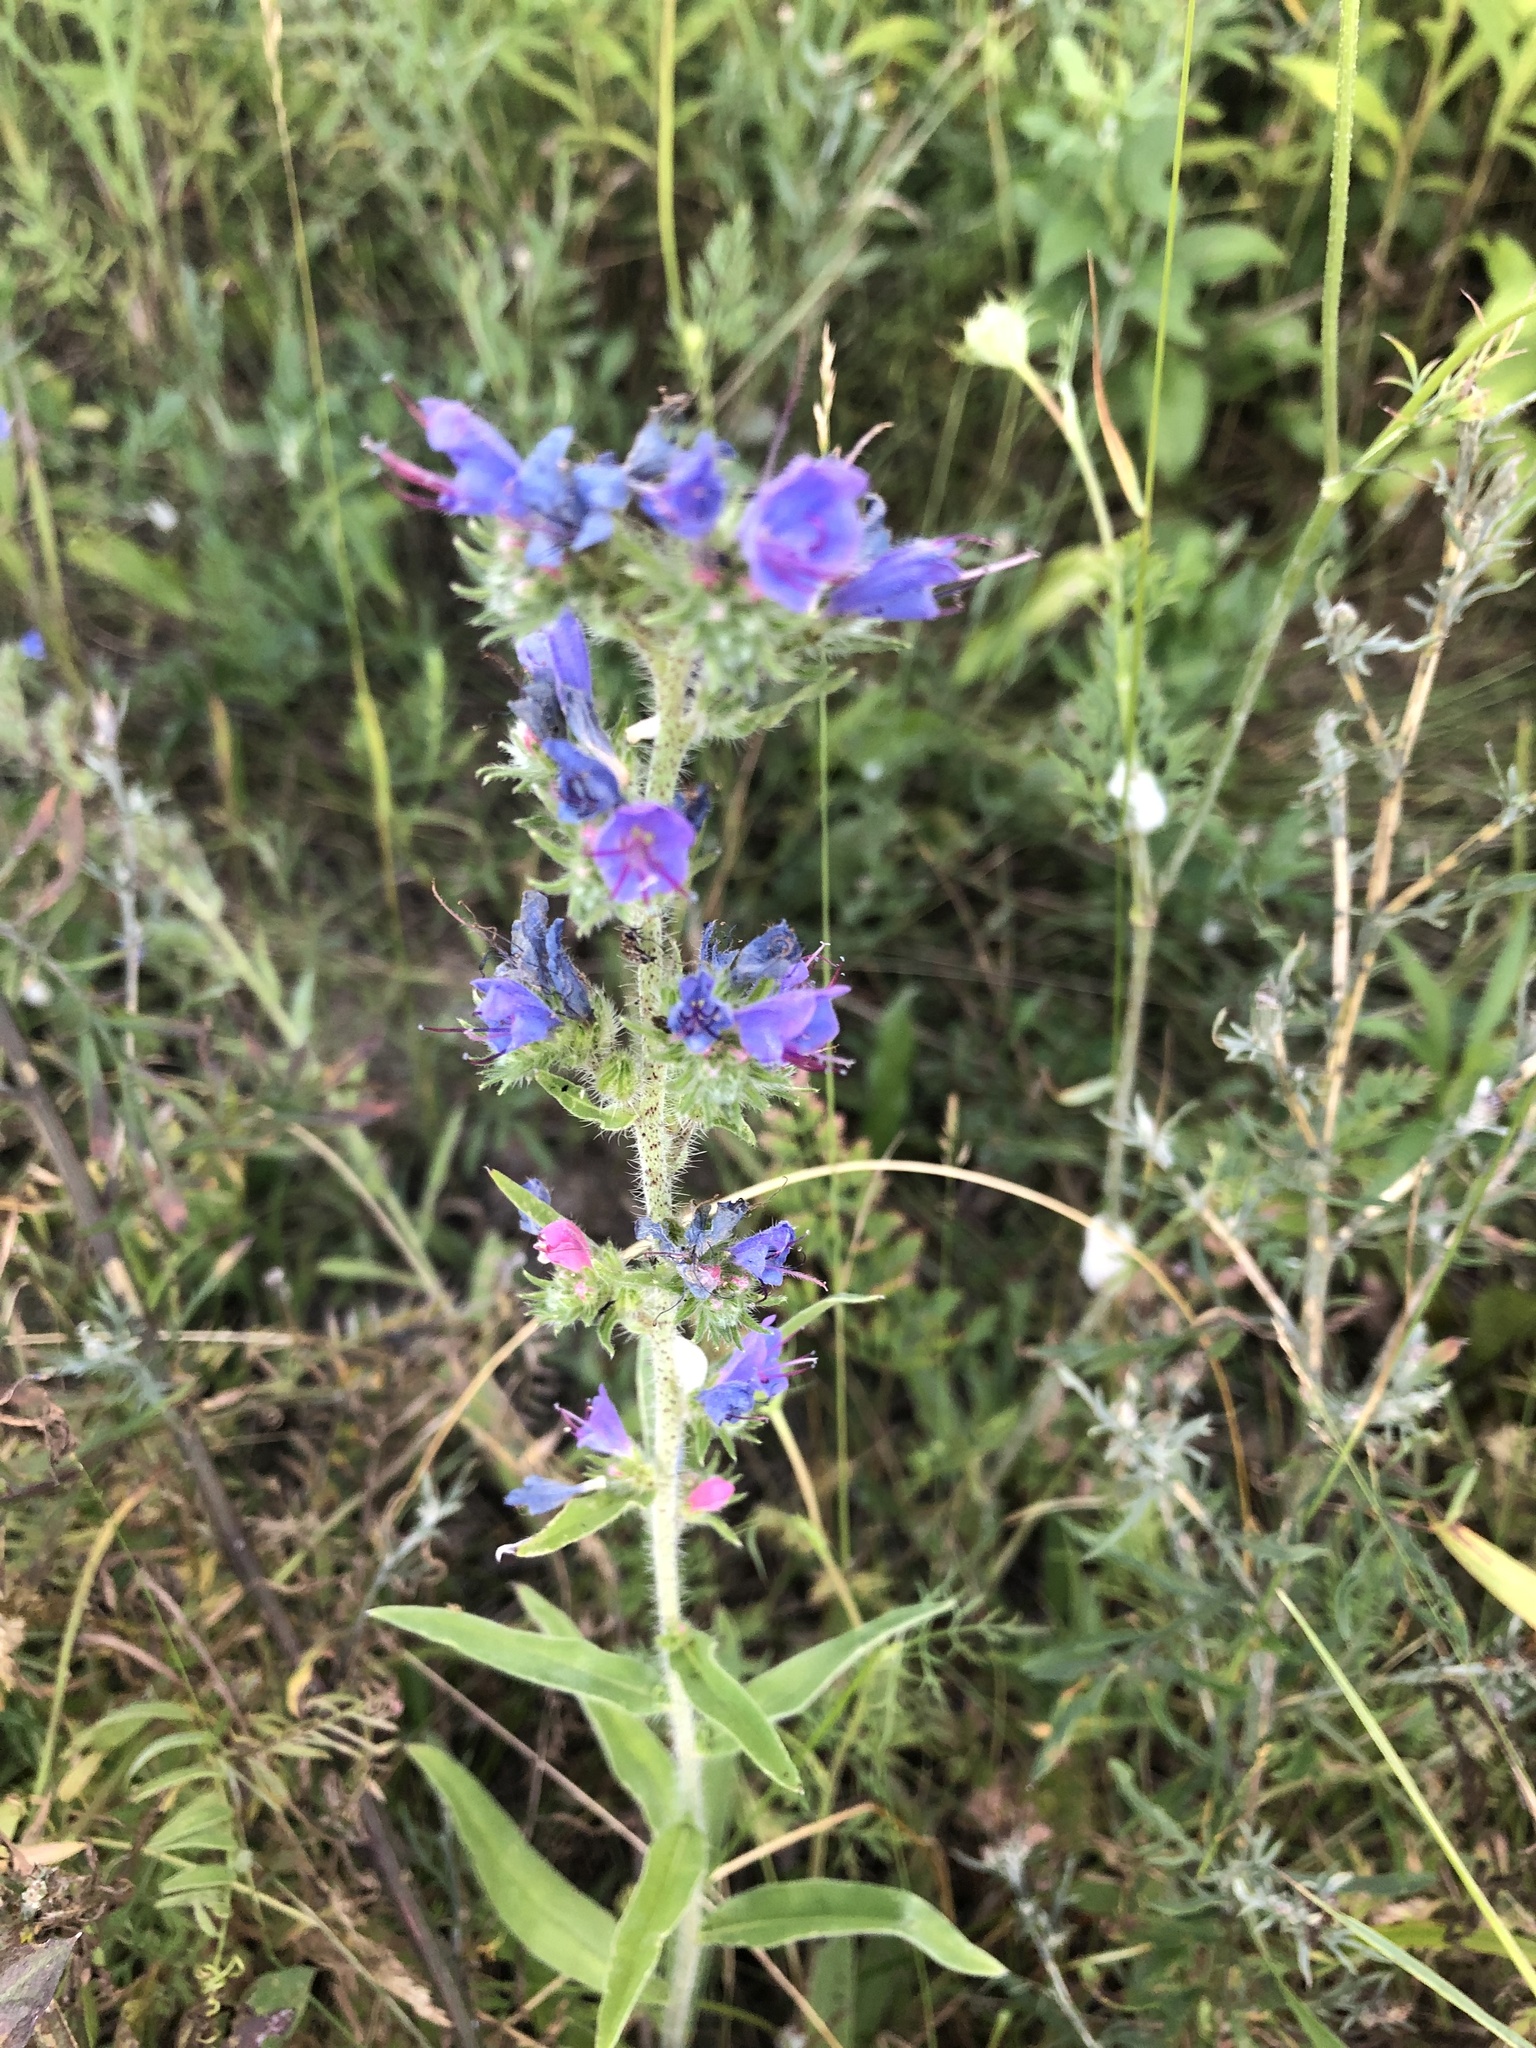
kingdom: Plantae
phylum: Tracheophyta
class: Magnoliopsida
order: Boraginales
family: Boraginaceae
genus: Echium
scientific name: Echium vulgare
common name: Common viper's bugloss
